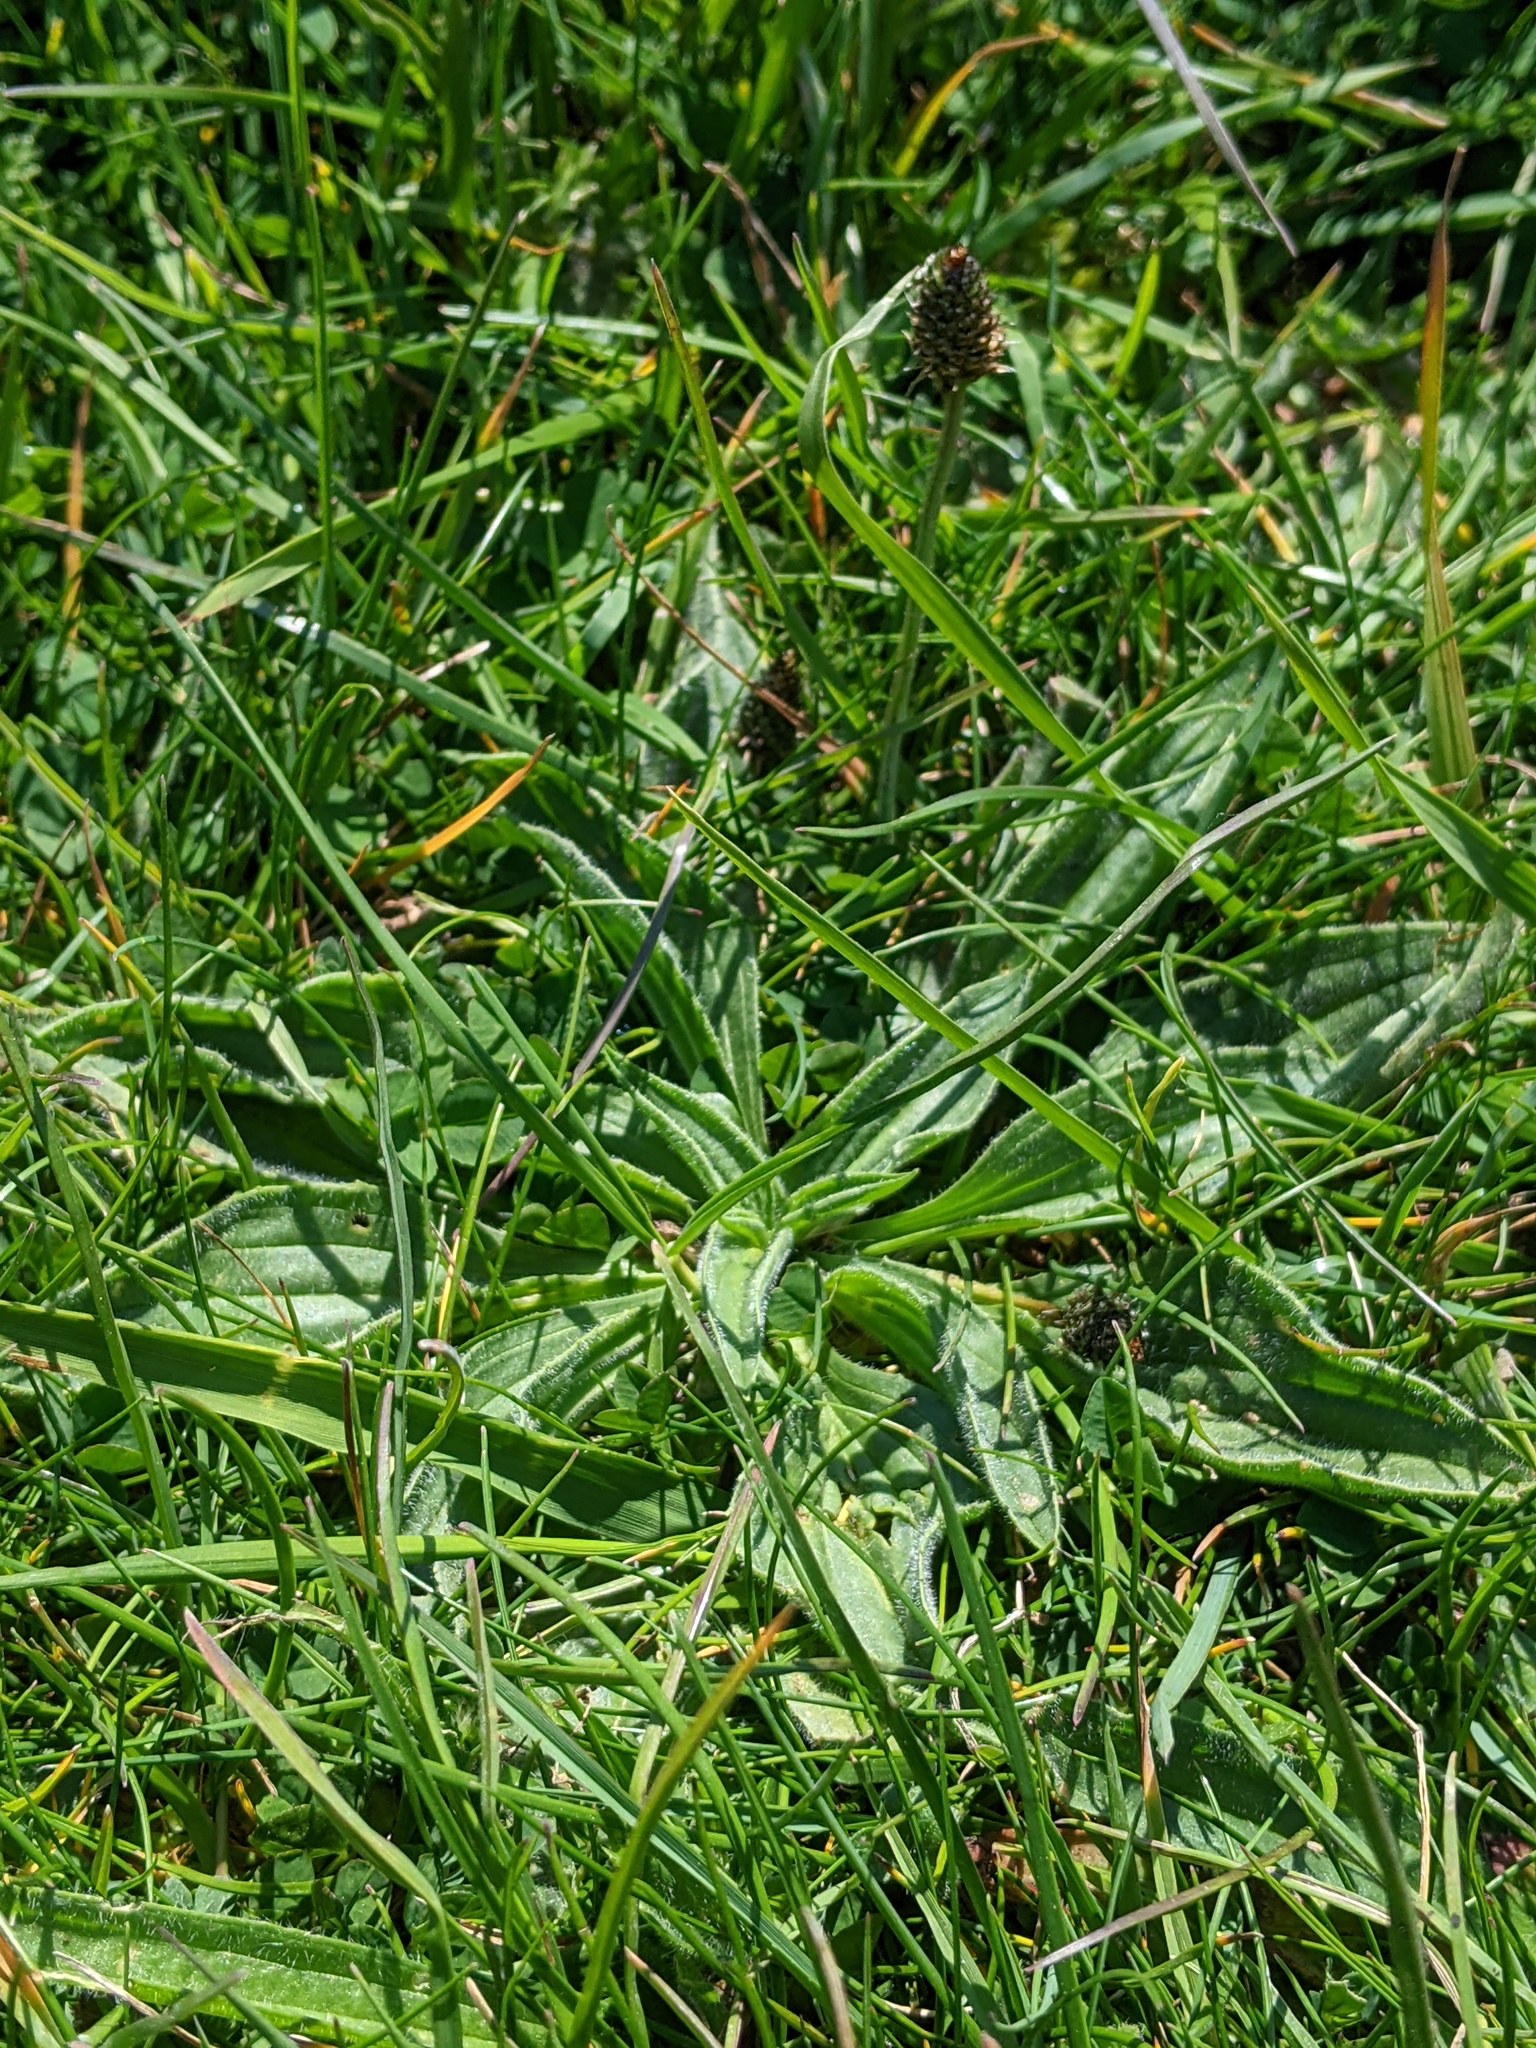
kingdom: Plantae
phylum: Tracheophyta
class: Magnoliopsida
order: Lamiales
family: Plantaginaceae
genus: Plantago
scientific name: Plantago lanceolata
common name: Ribwort plantain
